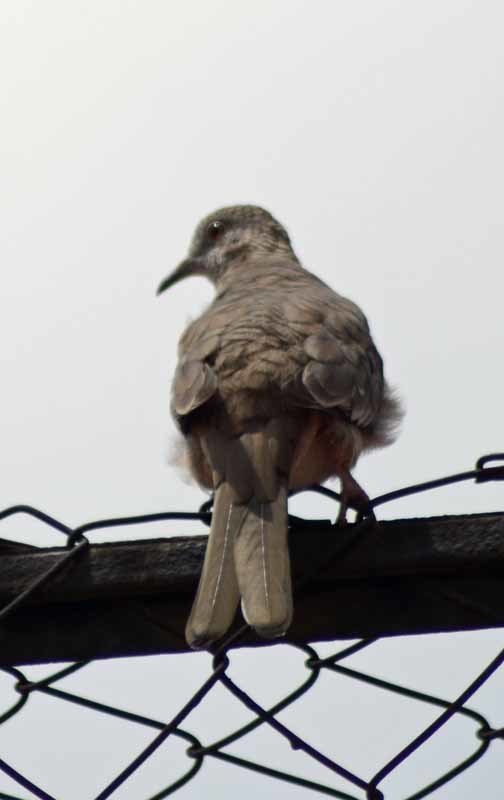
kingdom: Animalia
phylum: Chordata
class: Aves
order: Columbiformes
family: Columbidae
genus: Columbina
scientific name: Columbina inca
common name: Inca dove
